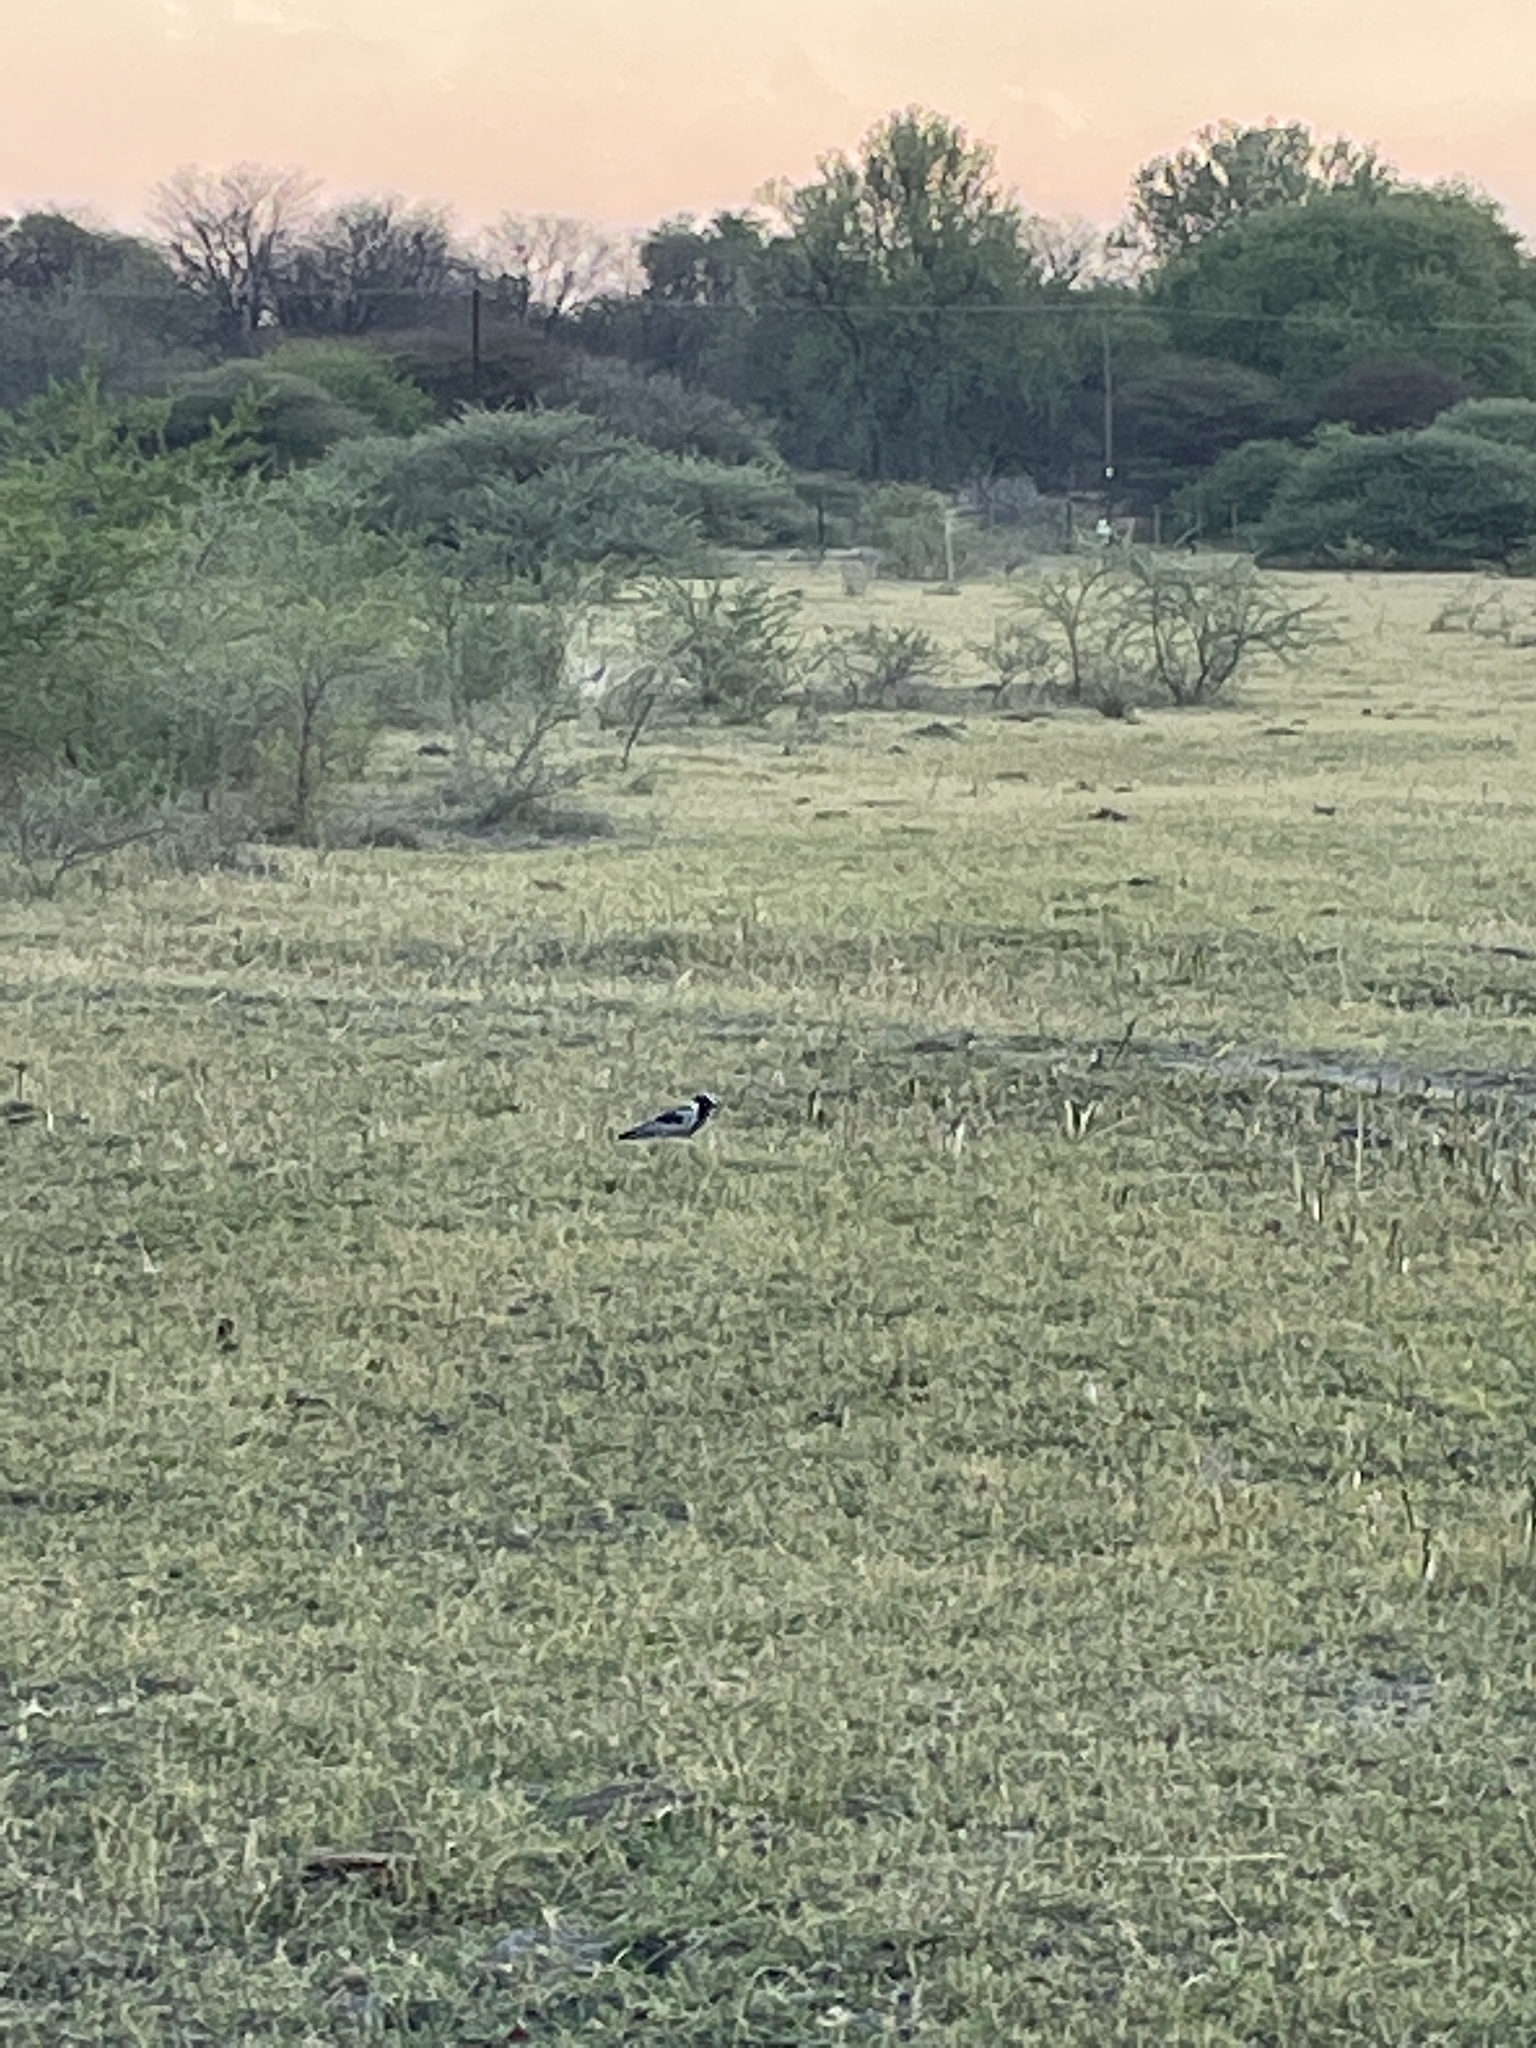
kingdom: Animalia
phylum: Chordata
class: Aves
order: Charadriiformes
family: Charadriidae
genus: Vanellus
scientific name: Vanellus armatus
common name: Blacksmith lapwing
